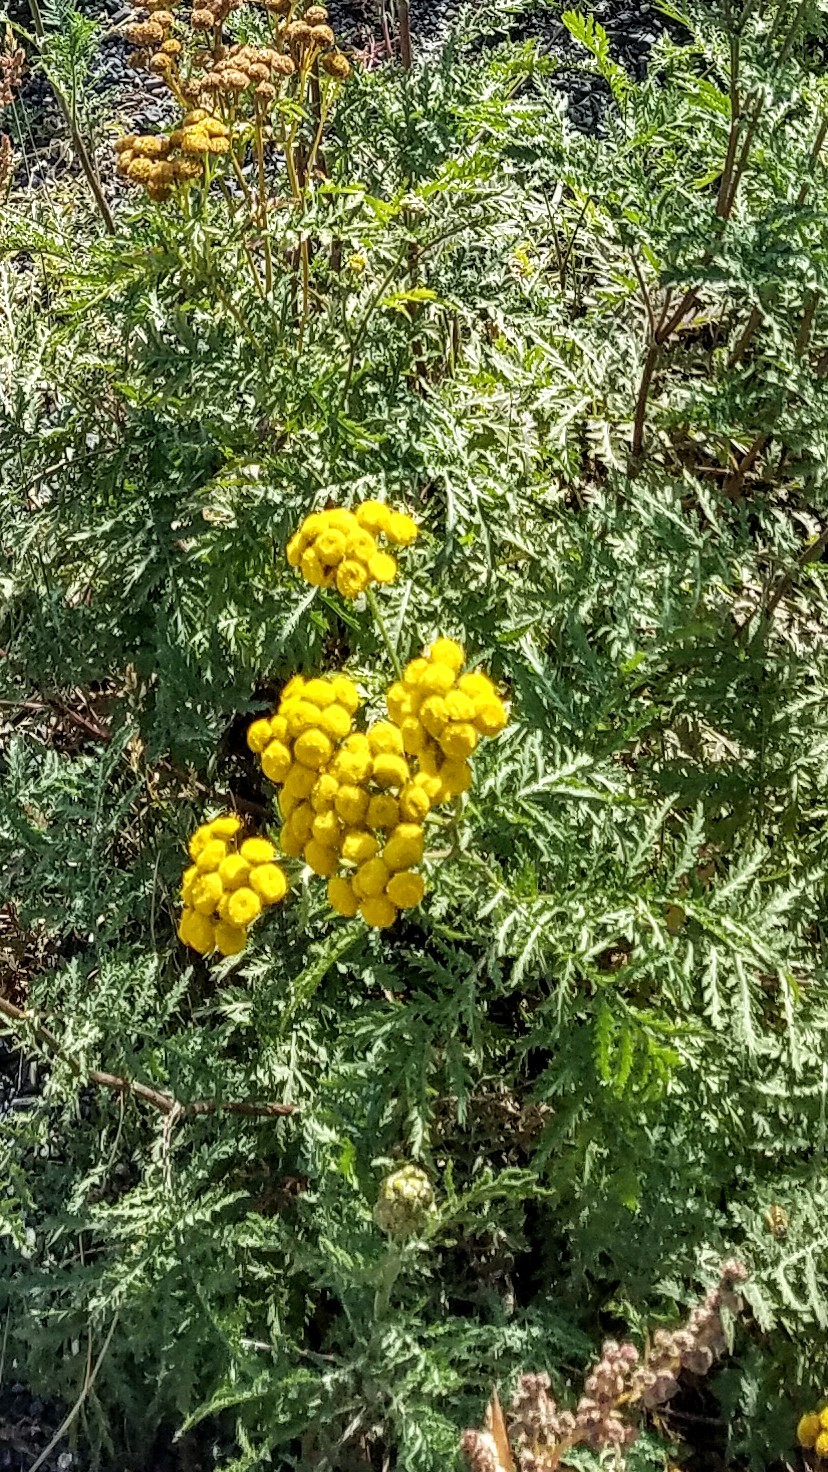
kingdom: Plantae
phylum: Tracheophyta
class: Magnoliopsida
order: Asterales
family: Asteraceae
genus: Tanacetum
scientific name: Tanacetum vulgare
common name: Common tansy
